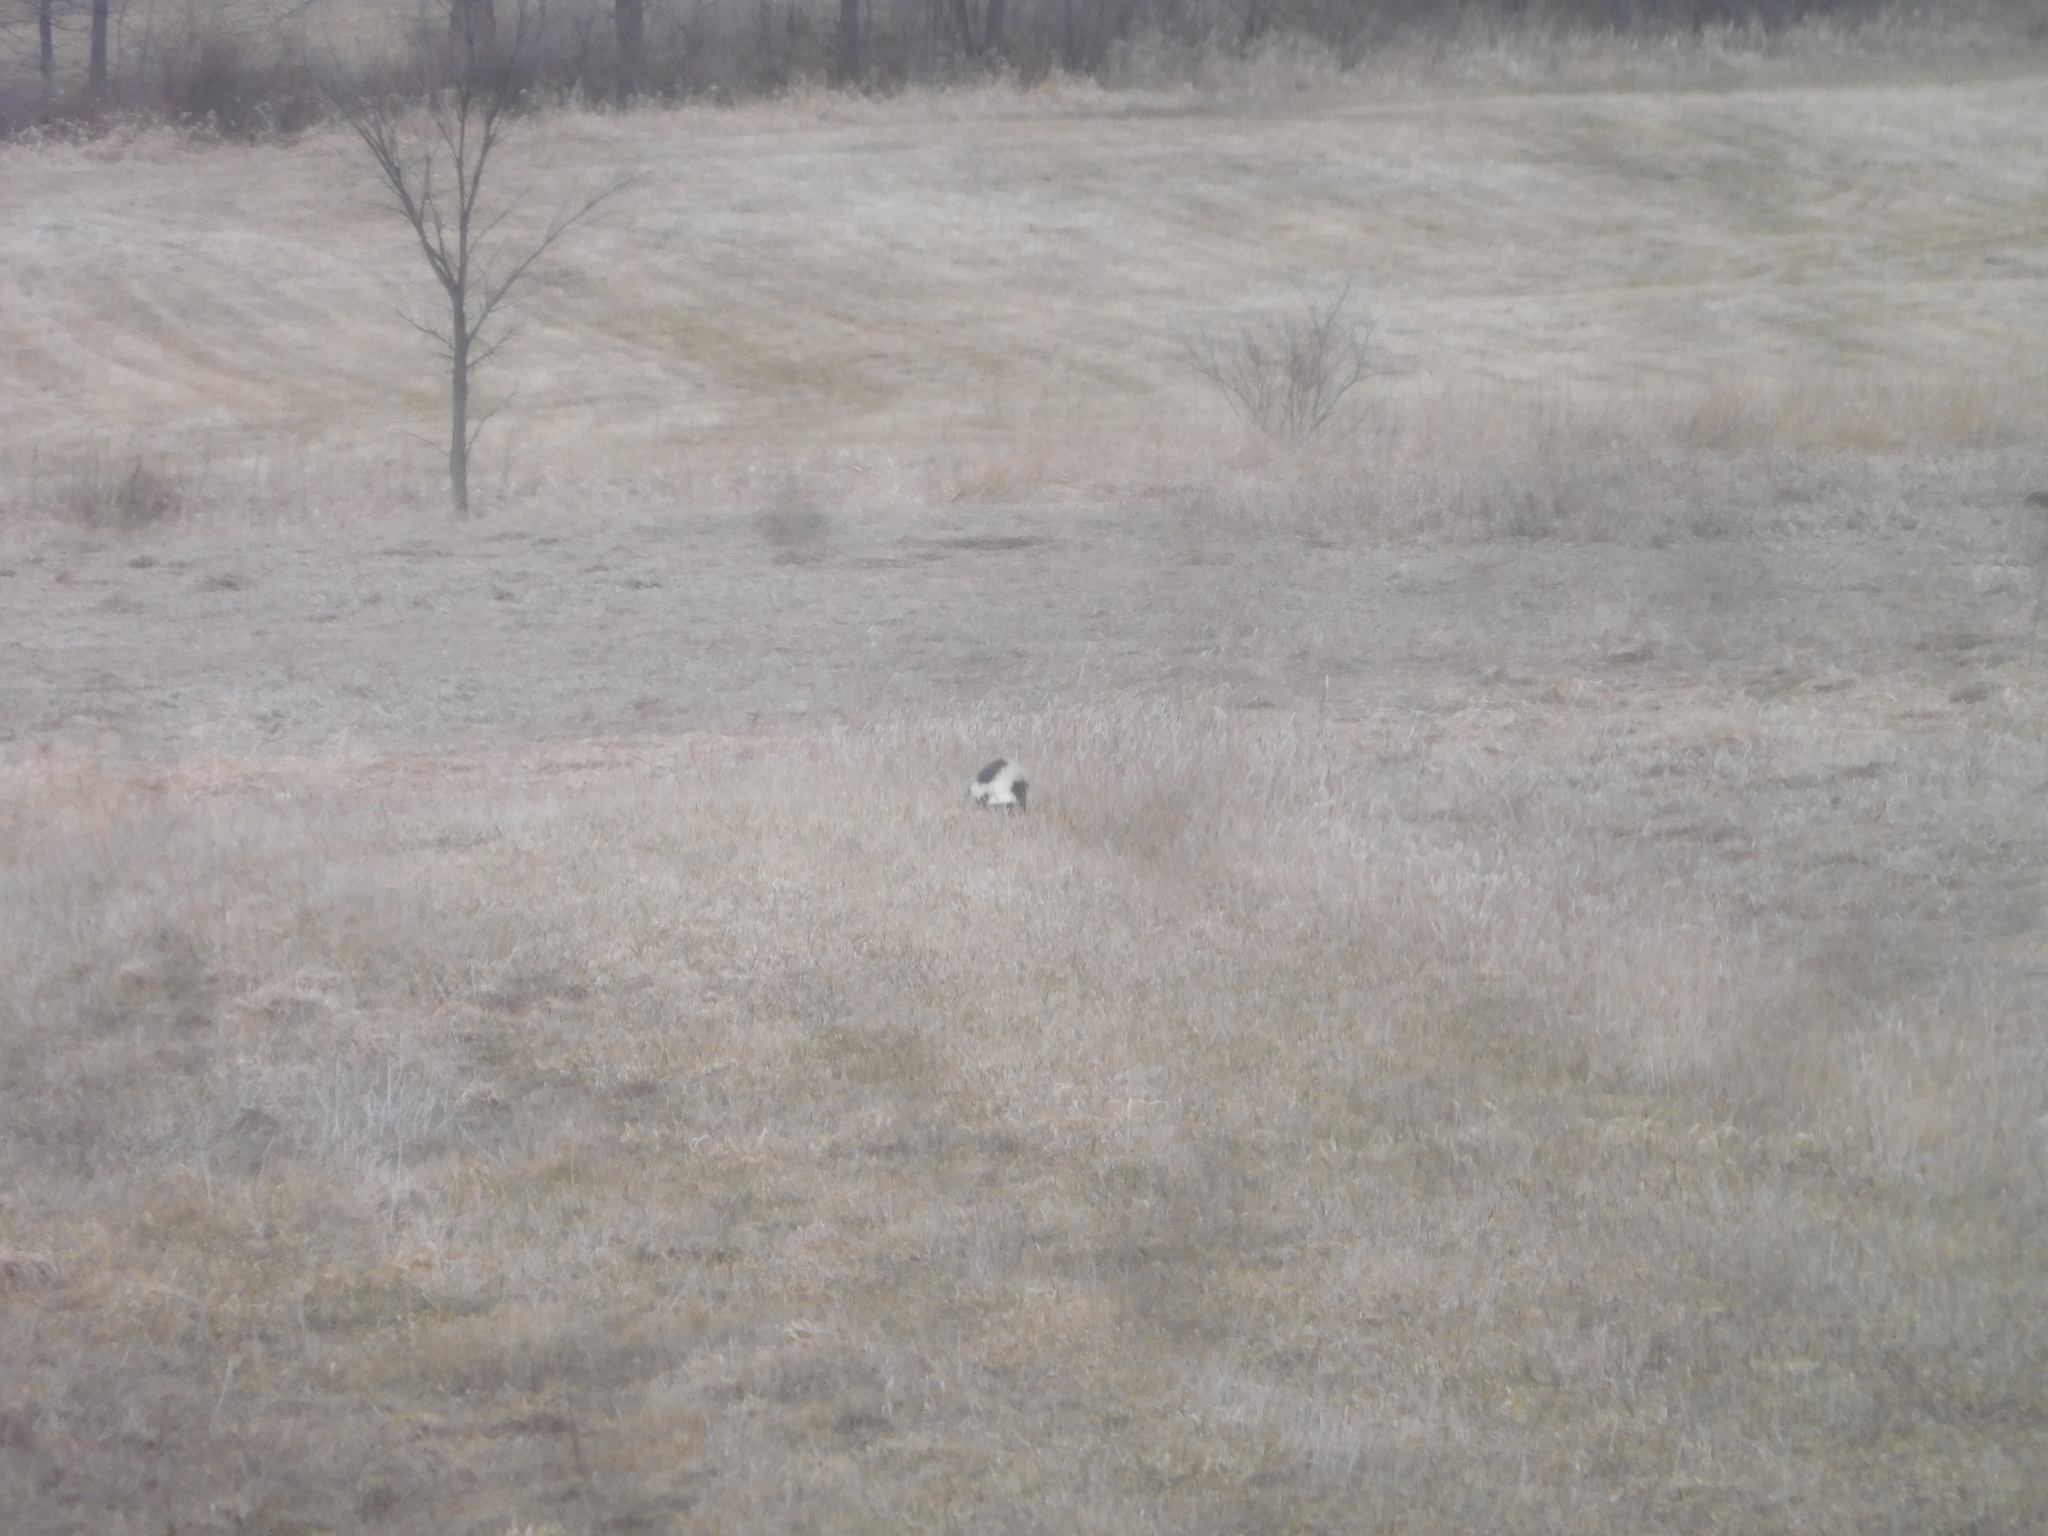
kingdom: Animalia
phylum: Chordata
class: Mammalia
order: Carnivora
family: Mephitidae
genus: Mephitis
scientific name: Mephitis mephitis
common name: Striped skunk
